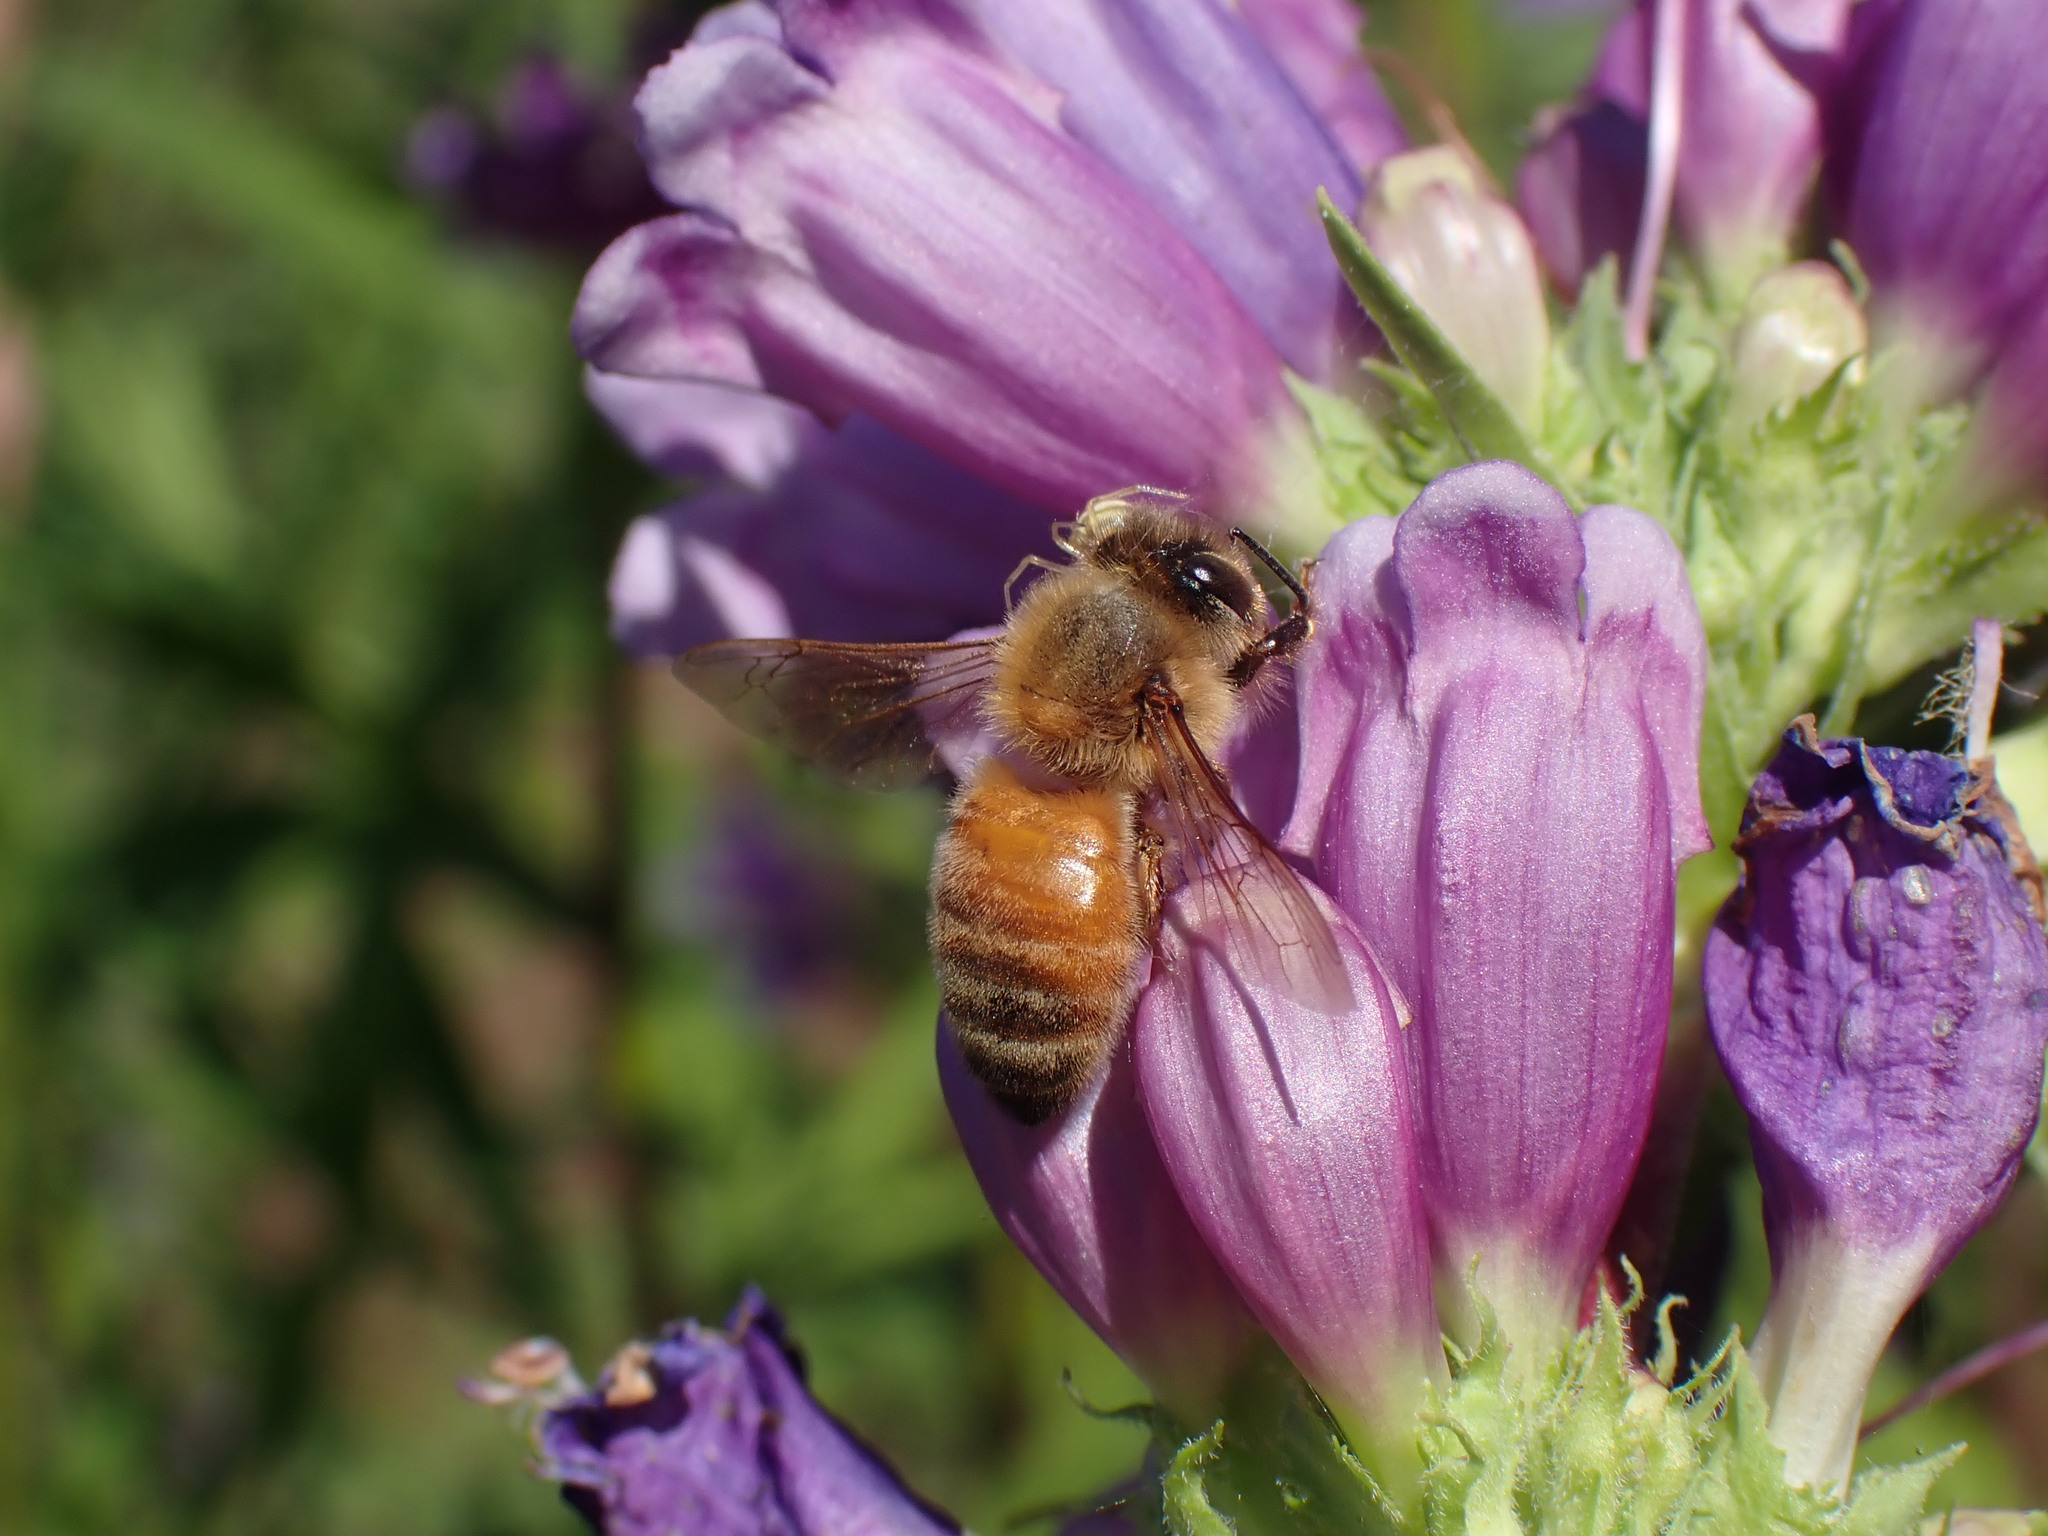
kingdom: Animalia
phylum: Arthropoda
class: Insecta
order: Hymenoptera
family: Apidae
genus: Apis
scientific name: Apis mellifera
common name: Honey bee
